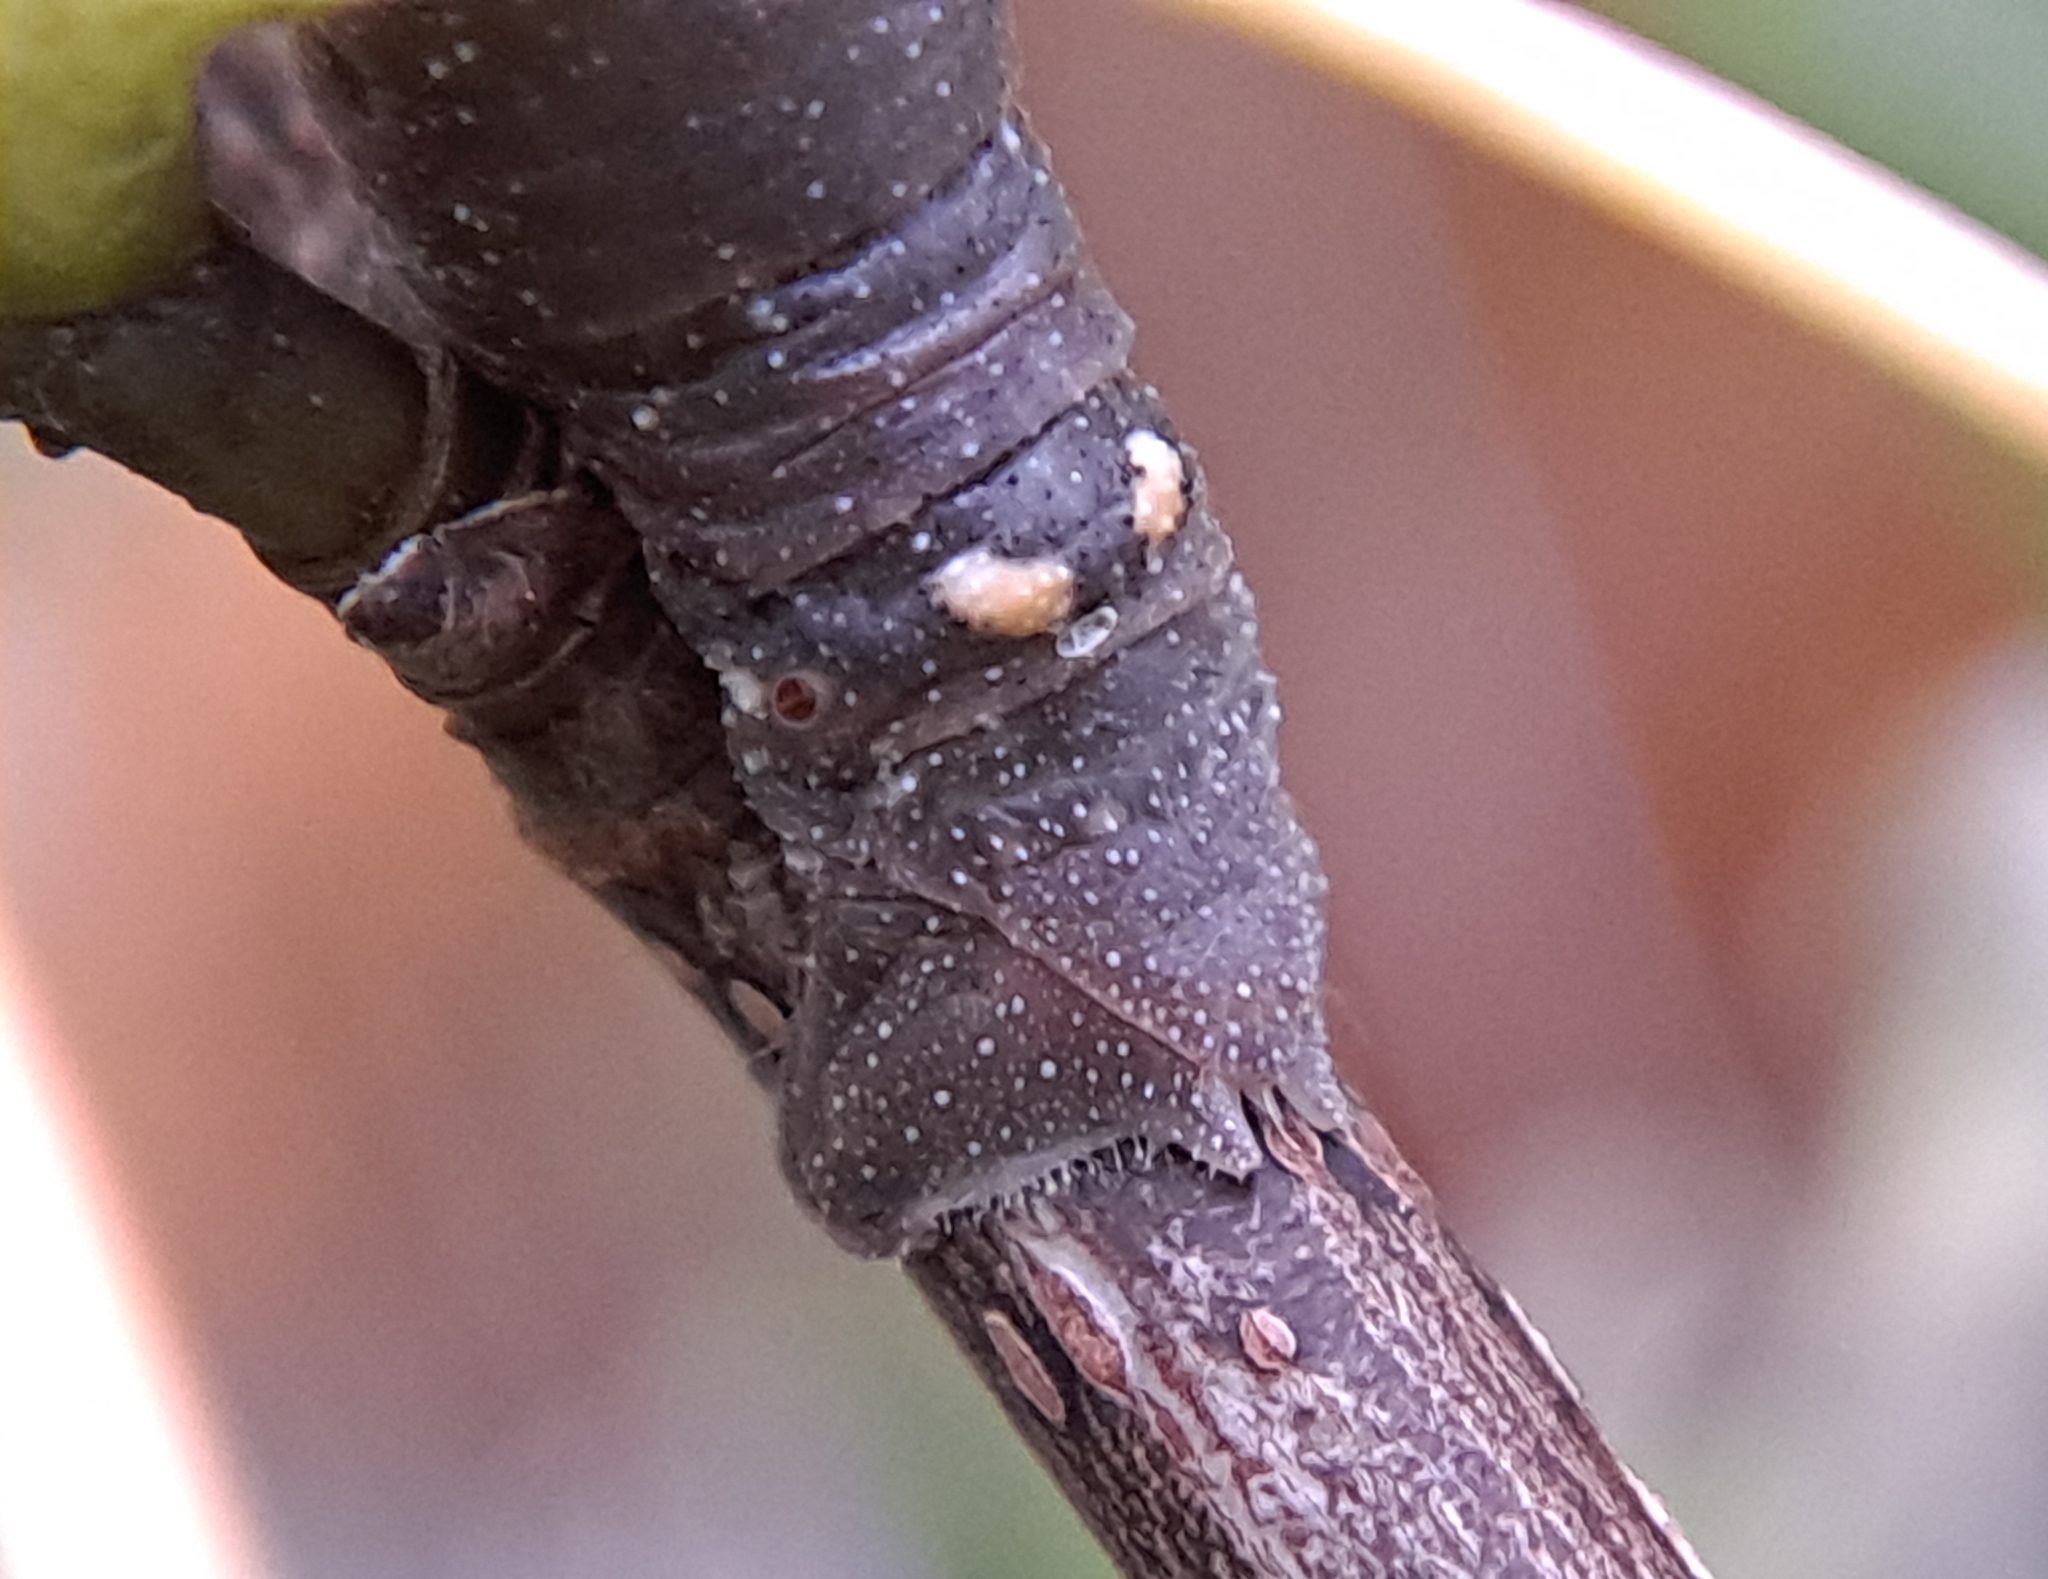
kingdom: Animalia
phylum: Arthropoda
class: Insecta
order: Lepidoptera
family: Geometridae
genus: Biston
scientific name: Biston betularia
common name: Peppered moth
